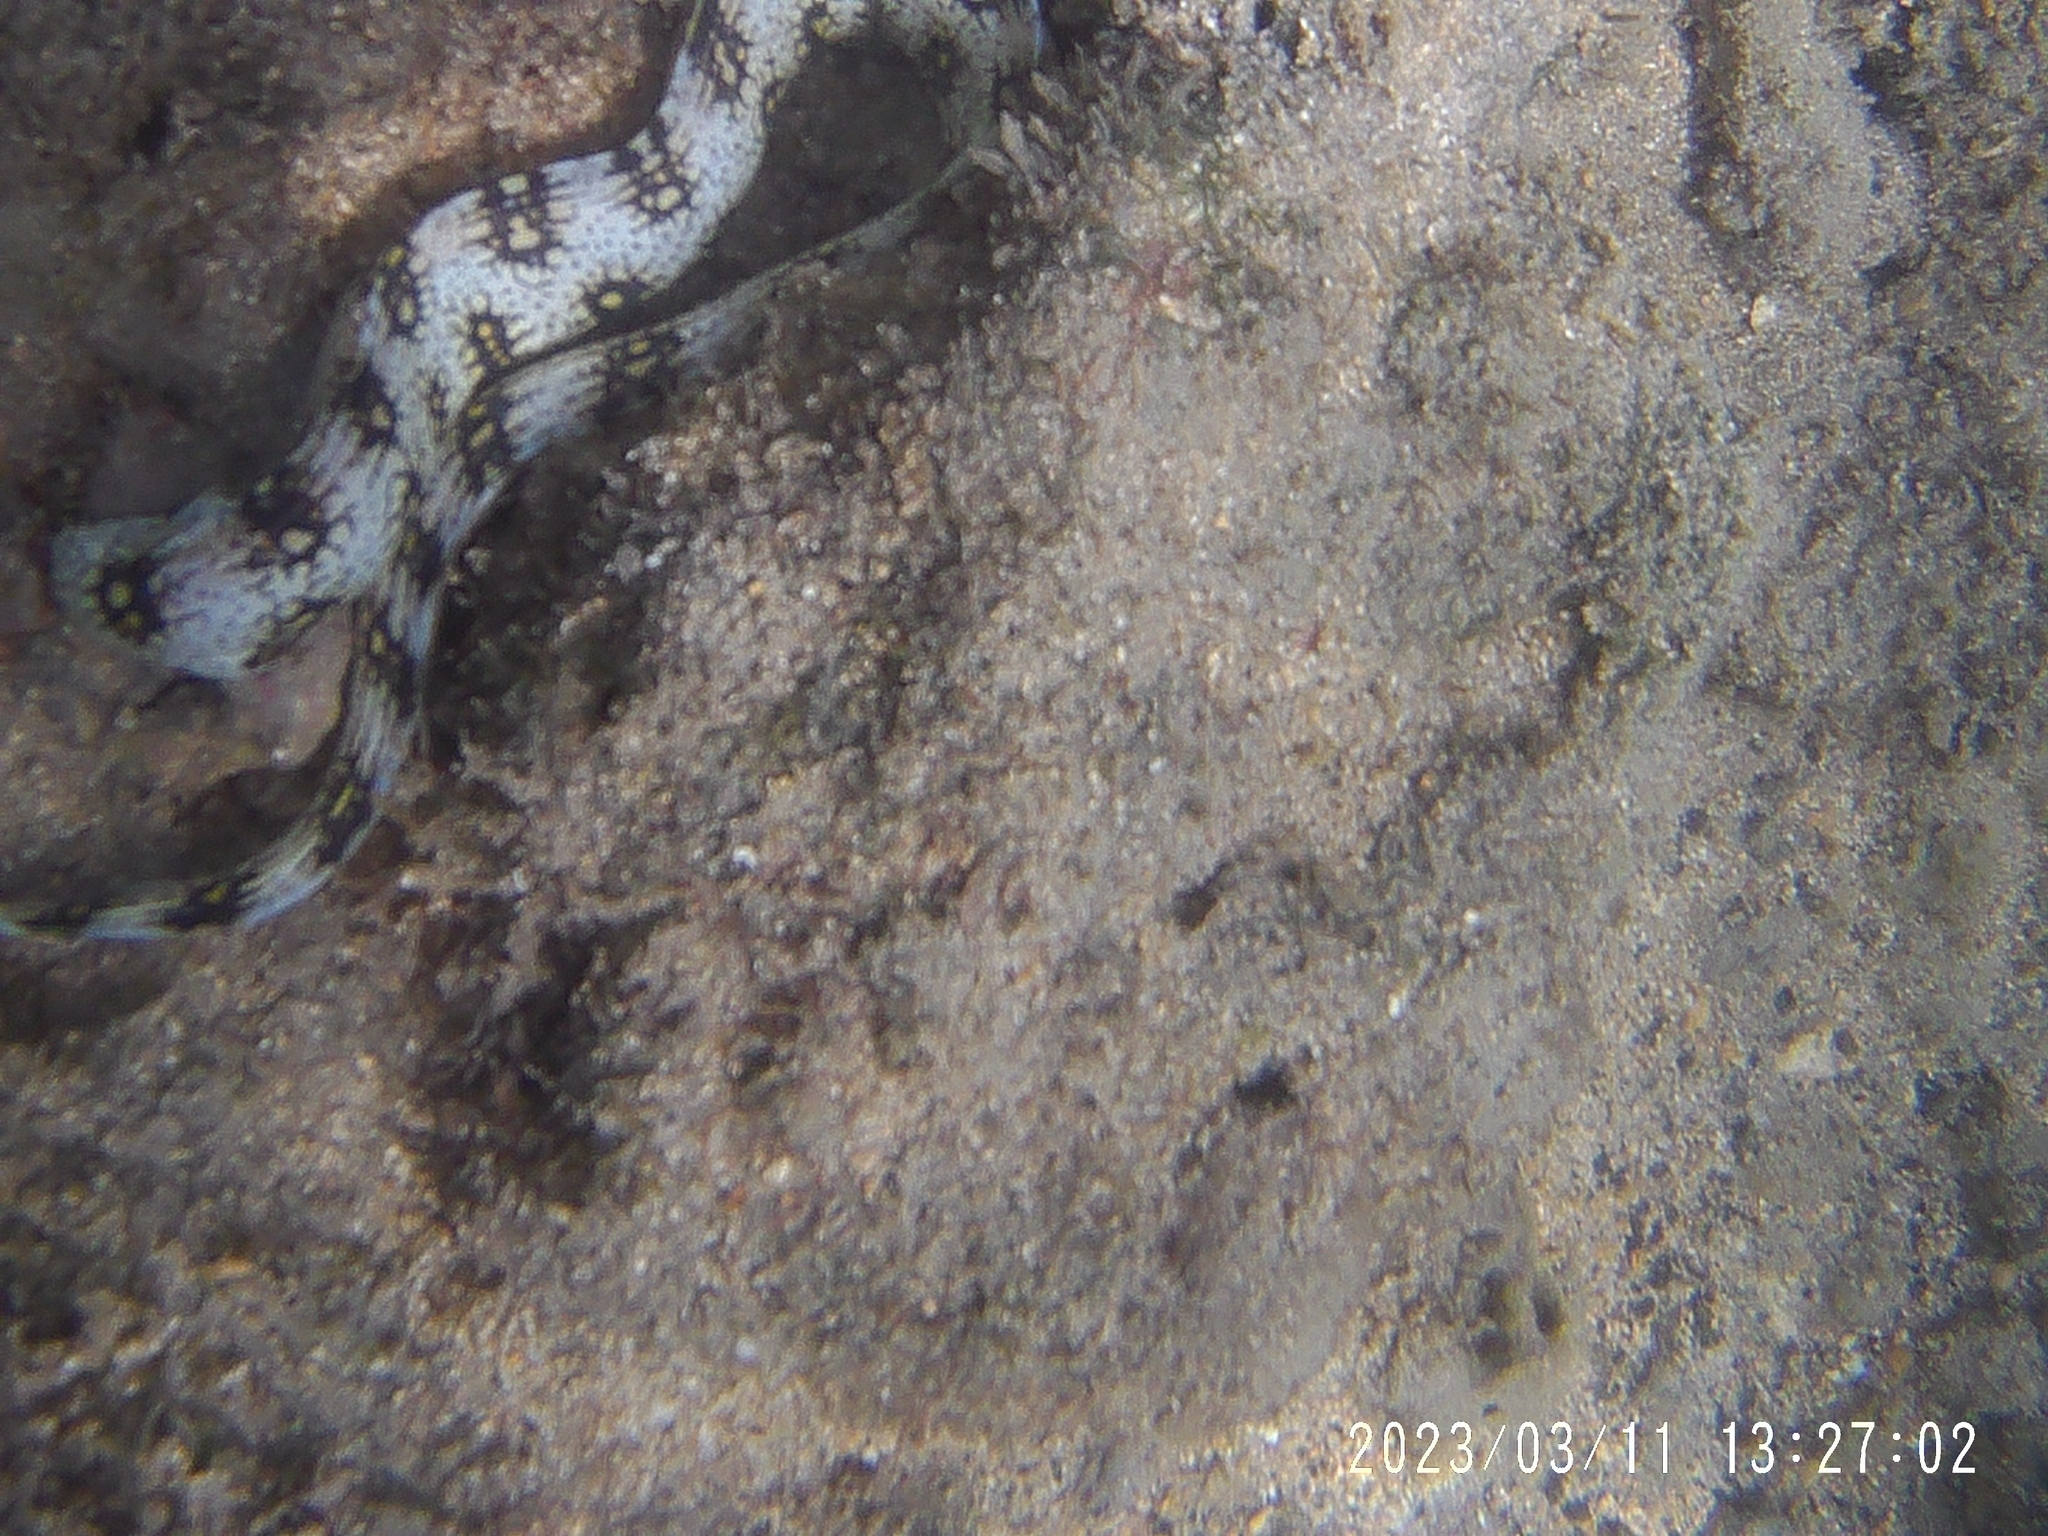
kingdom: Animalia
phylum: Chordata
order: Anguilliformes
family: Muraenidae
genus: Echidna
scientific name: Echidna nebulosa
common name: Snowflake moray
